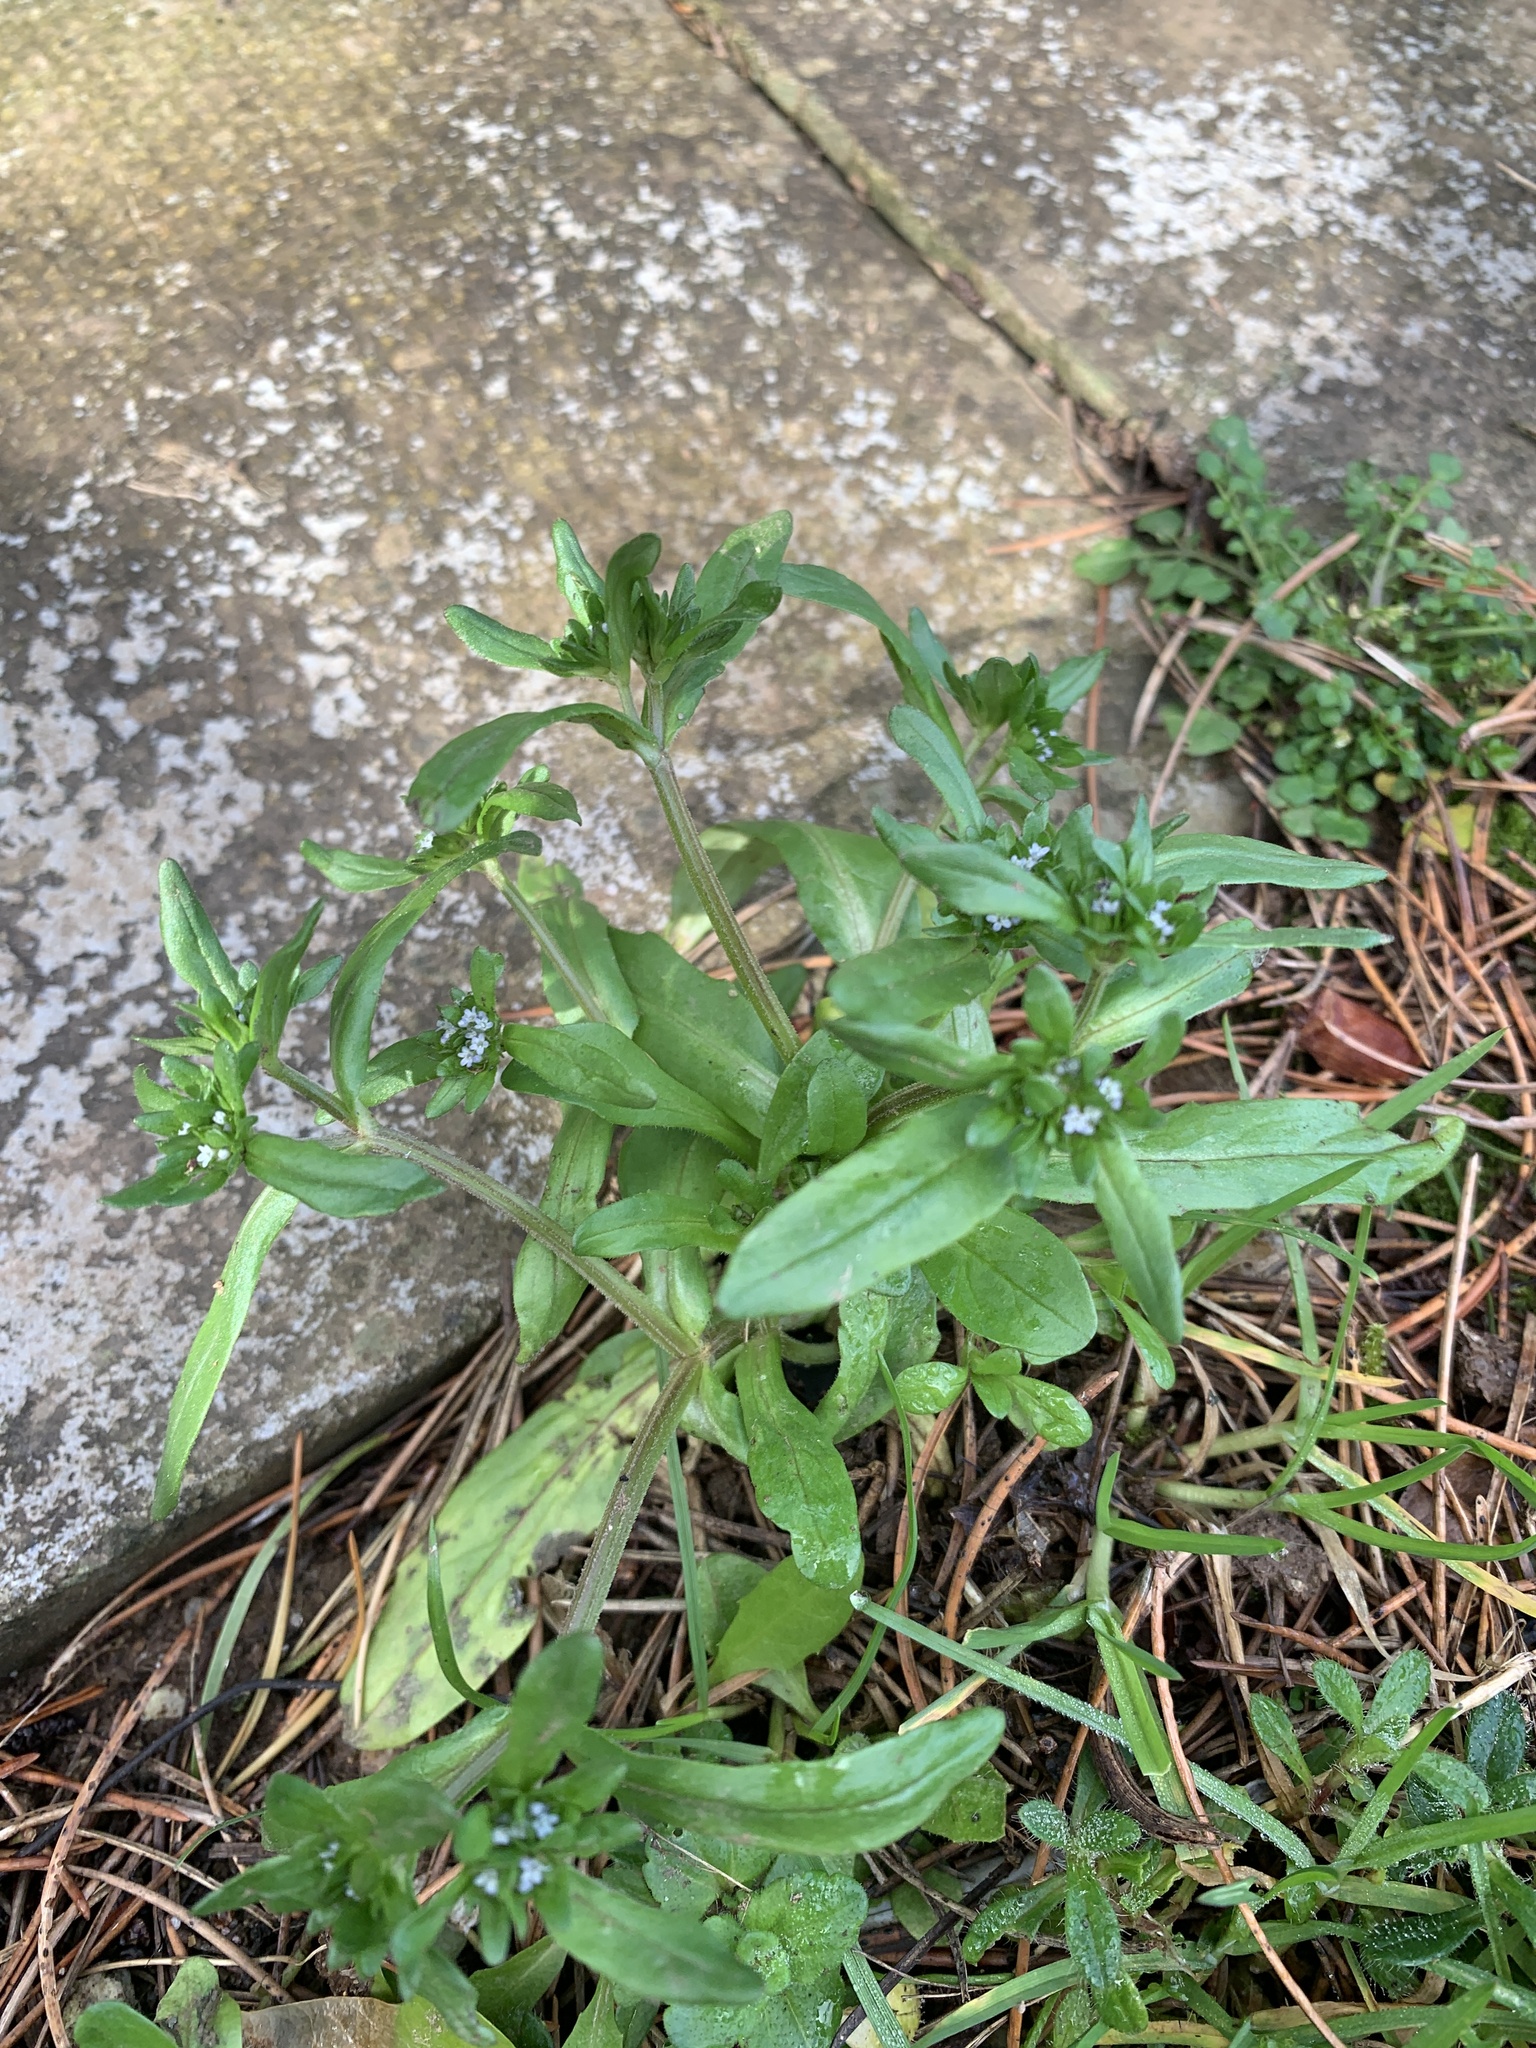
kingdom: Plantae
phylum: Tracheophyta
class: Magnoliopsida
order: Dipsacales
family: Caprifoliaceae
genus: Valerianella
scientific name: Valerianella locusta
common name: Common cornsalad
